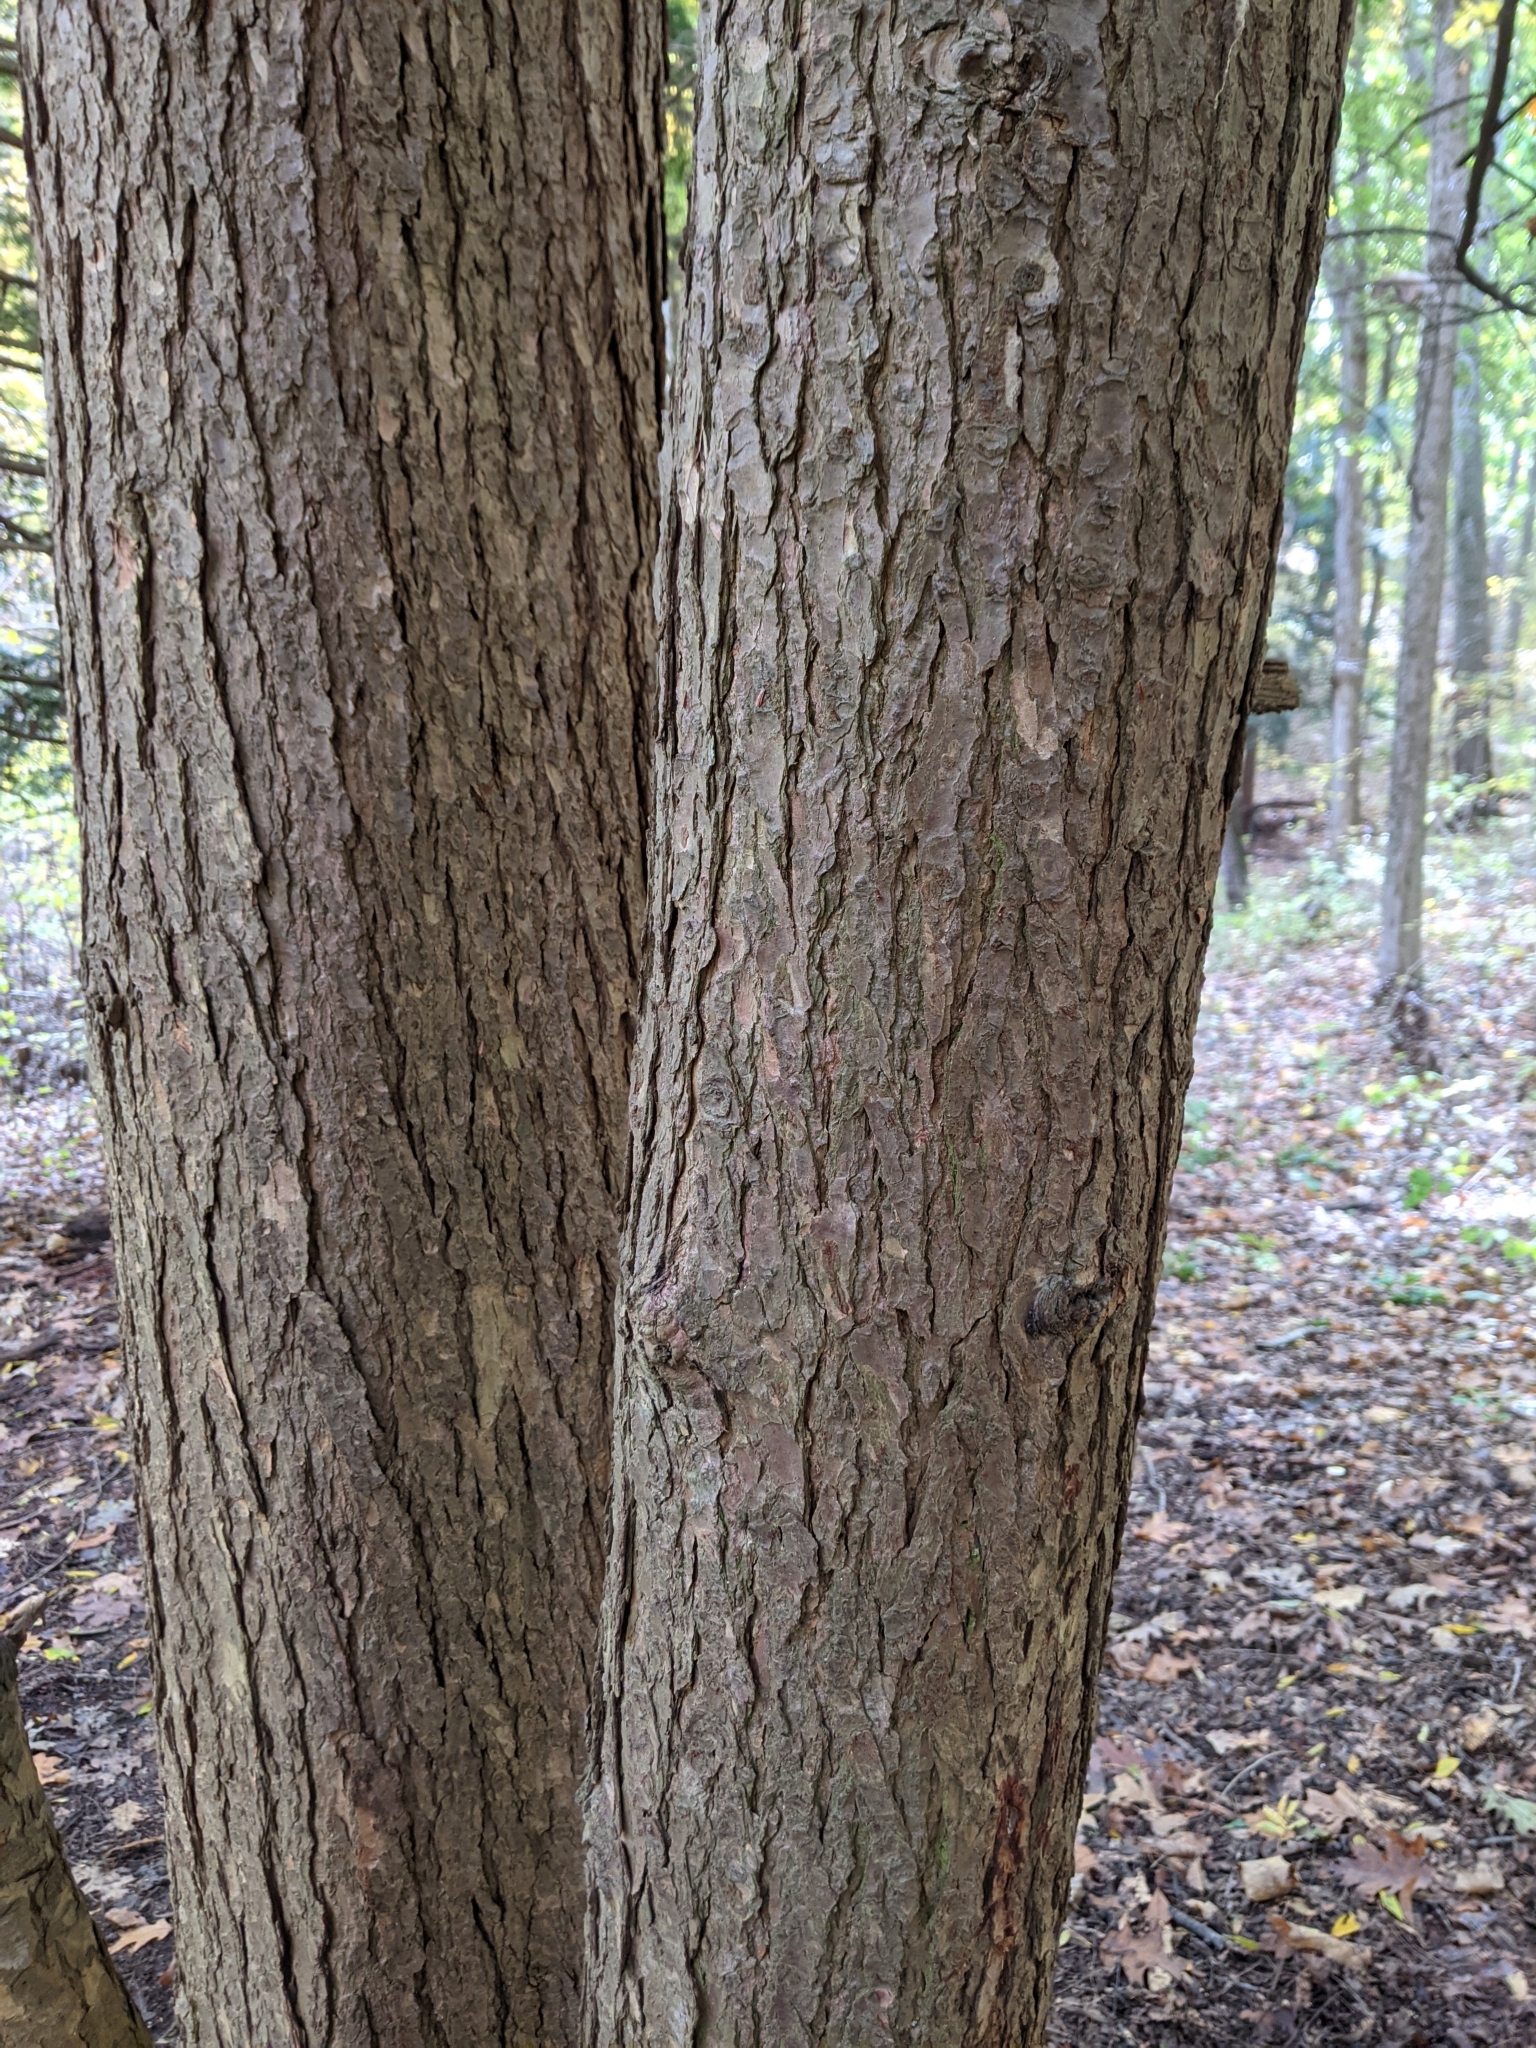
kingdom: Plantae
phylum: Tracheophyta
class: Pinopsida
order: Pinales
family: Pinaceae
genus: Tsuga
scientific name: Tsuga canadensis
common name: Eastern hemlock
